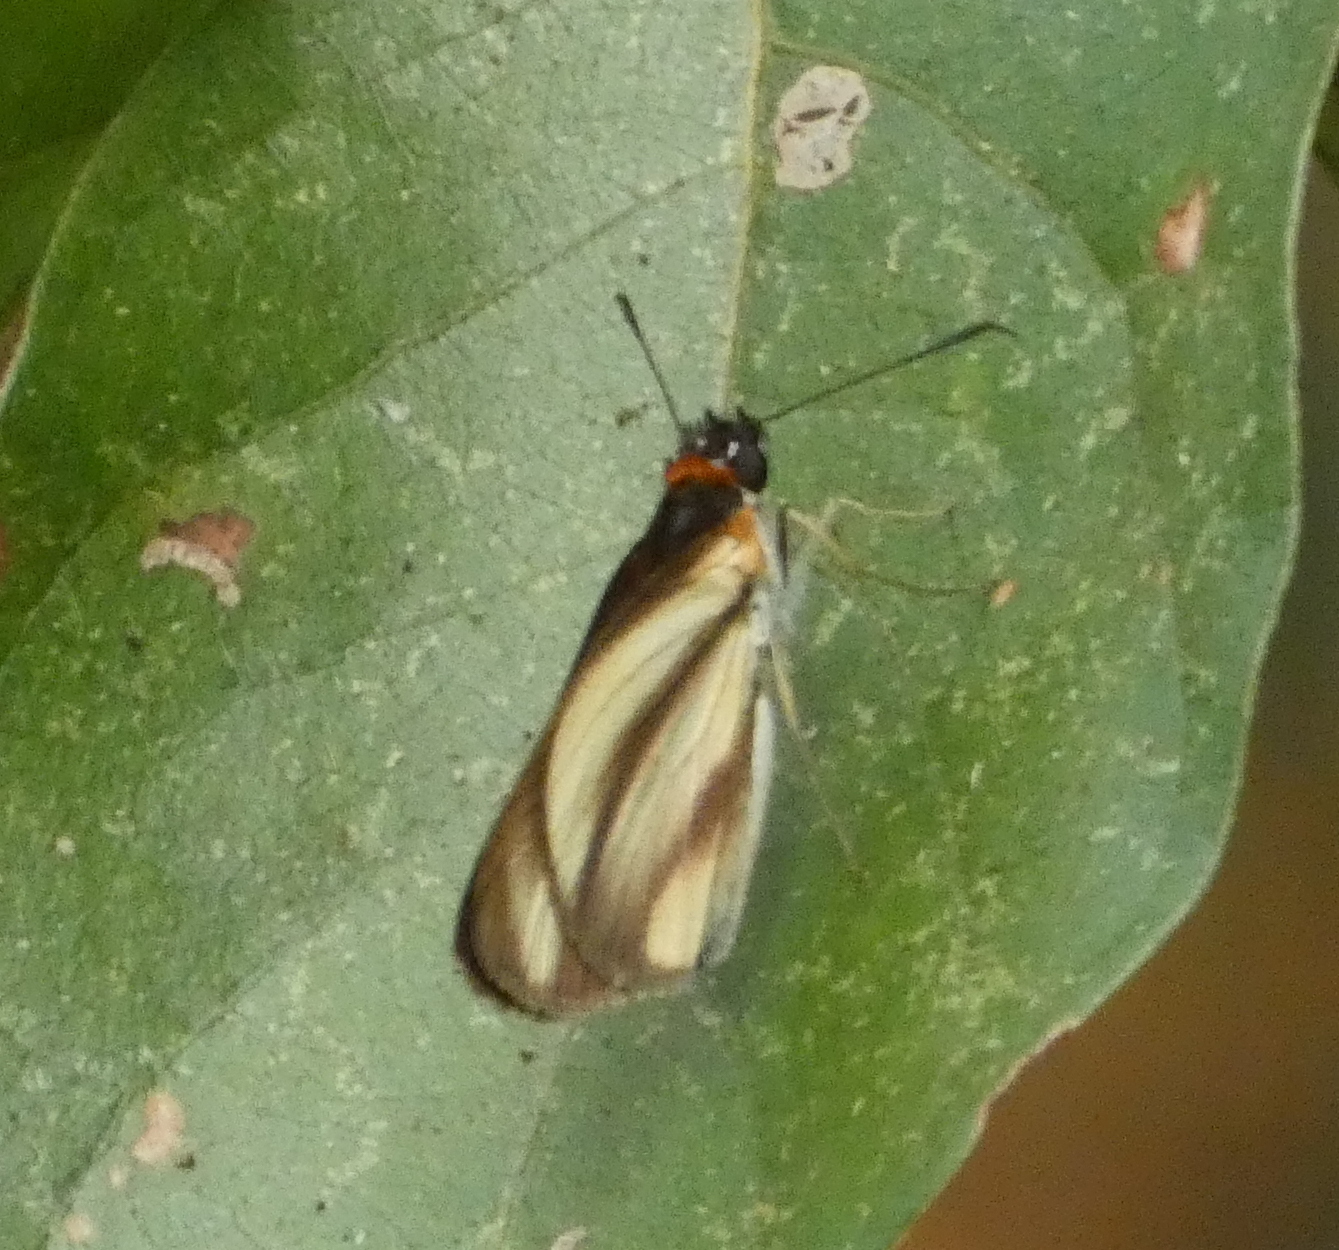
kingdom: Animalia
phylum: Arthropoda
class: Insecta
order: Lepidoptera
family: Hesperiidae
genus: Vettius
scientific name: Vettius marcus
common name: Marcus skipper
